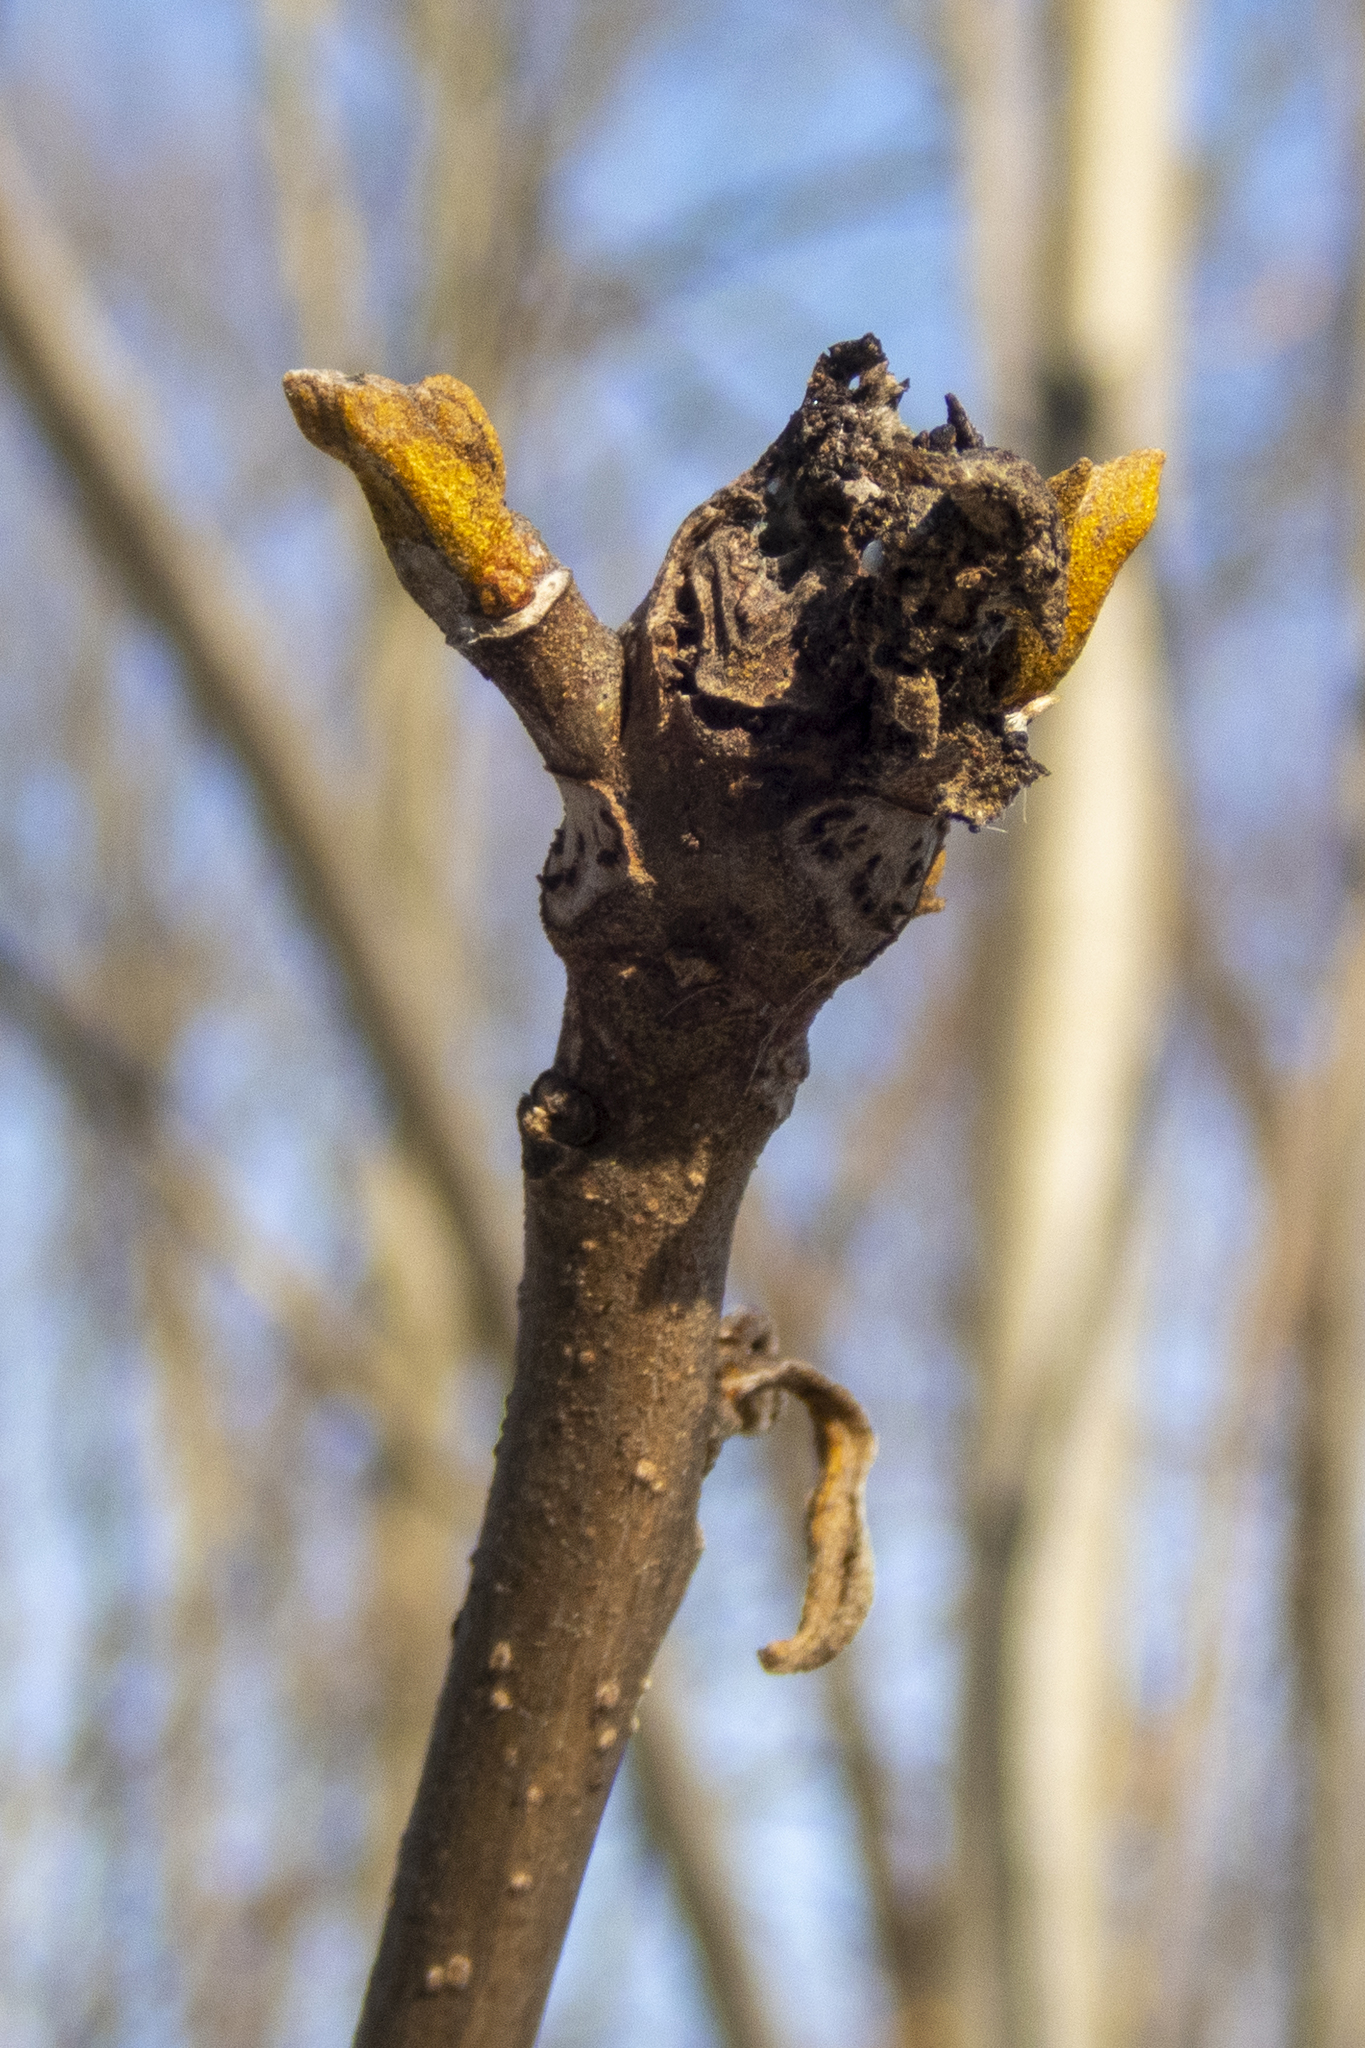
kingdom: Plantae
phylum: Tracheophyta
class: Magnoliopsida
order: Fagales
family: Juglandaceae
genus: Carya
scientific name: Carya cordiformis
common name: Bitternut hickory
